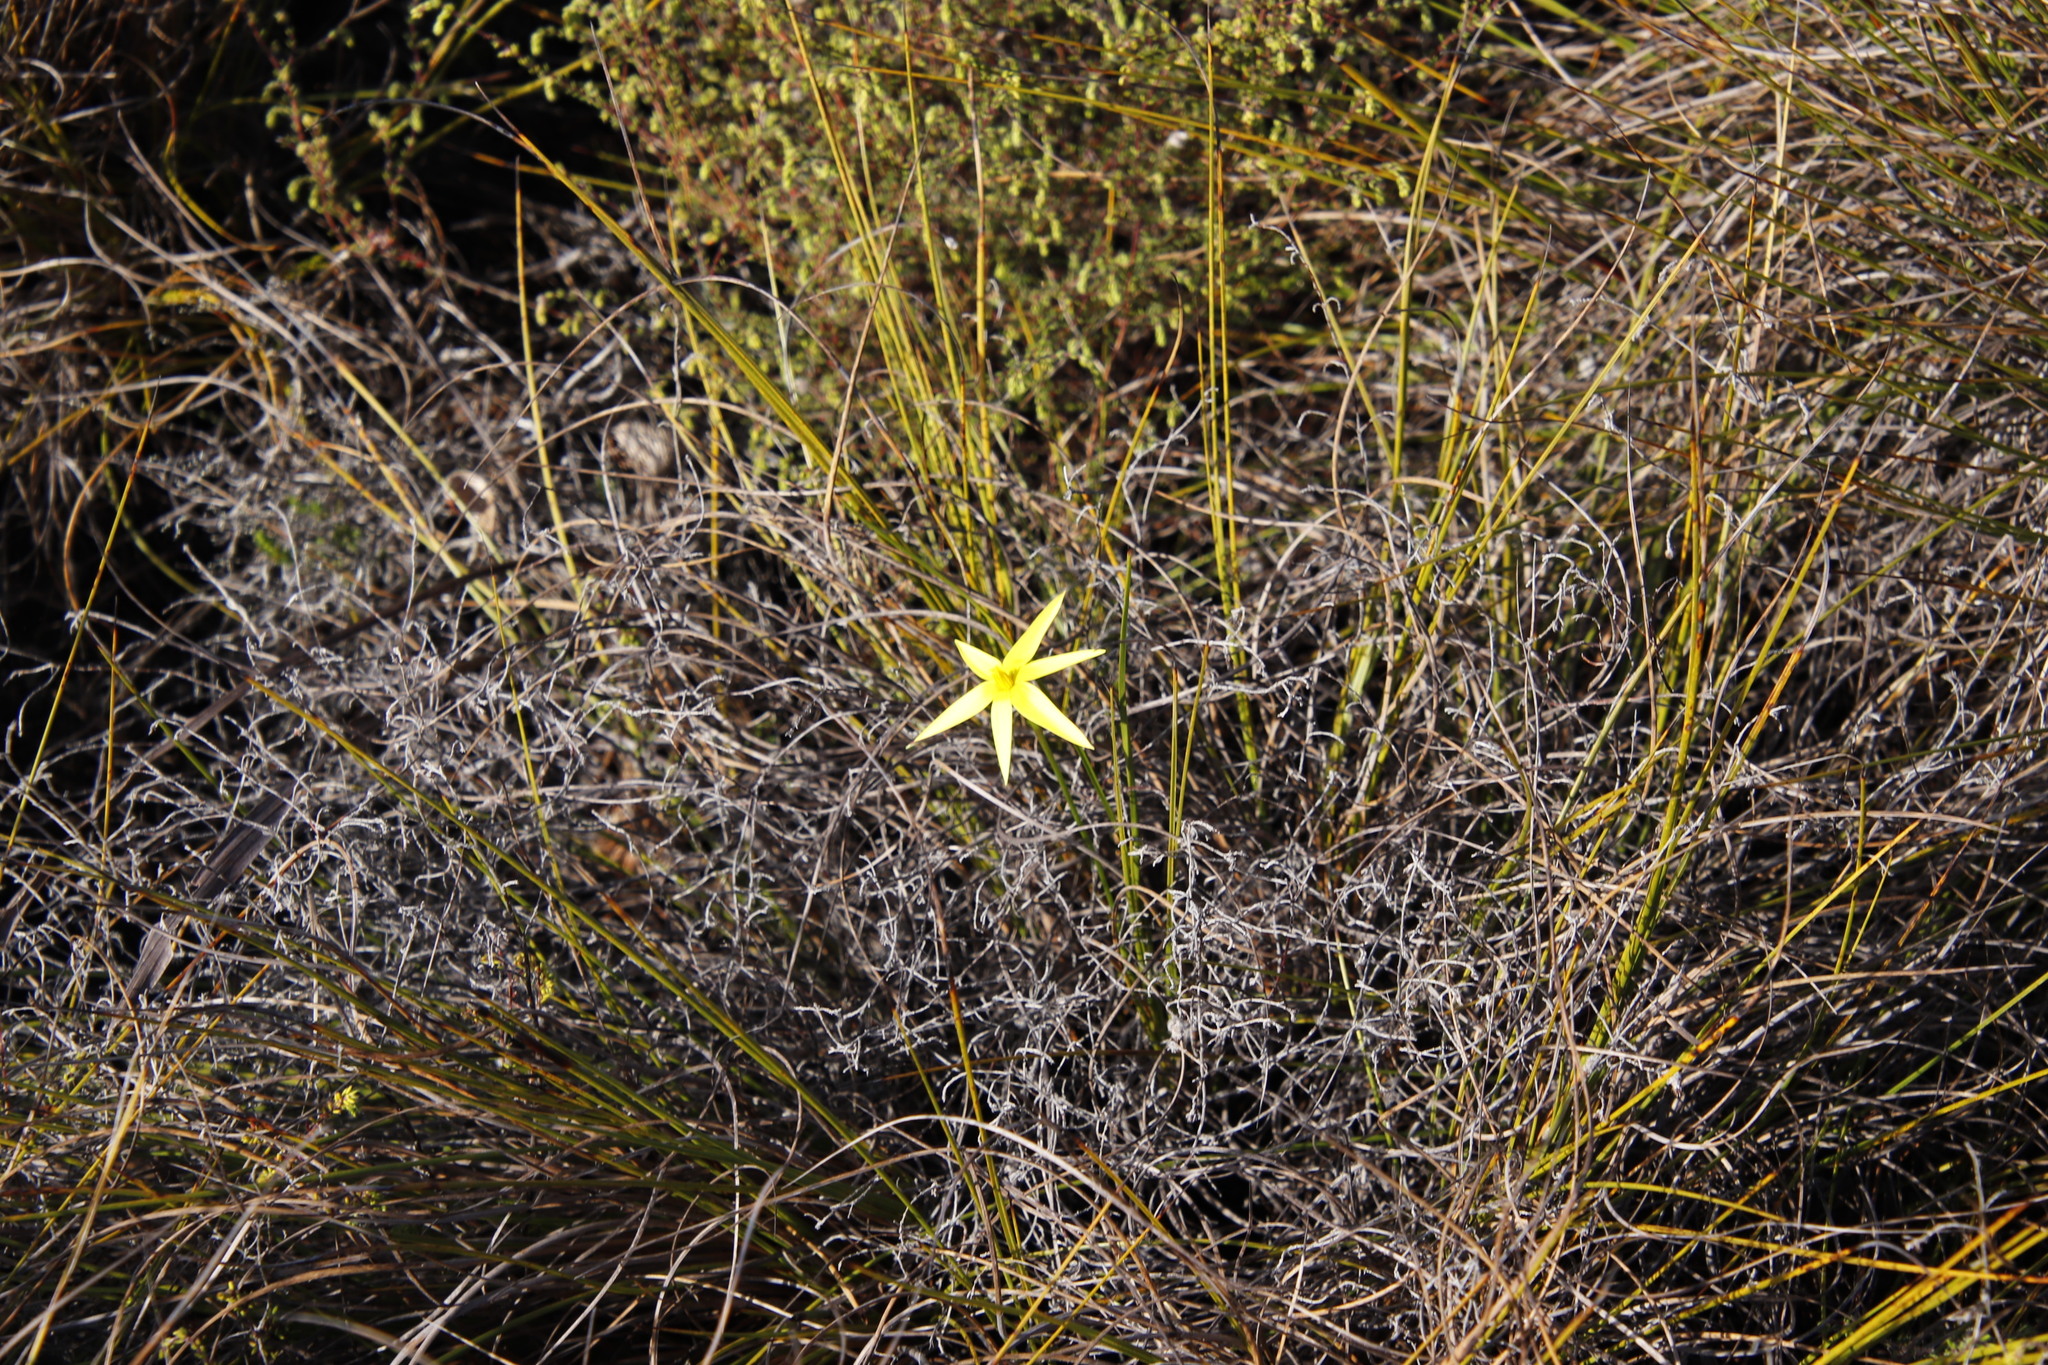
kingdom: Plantae
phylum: Tracheophyta
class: Liliopsida
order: Asparagales
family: Hypoxidaceae
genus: Pauridia
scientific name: Pauridia capensis
